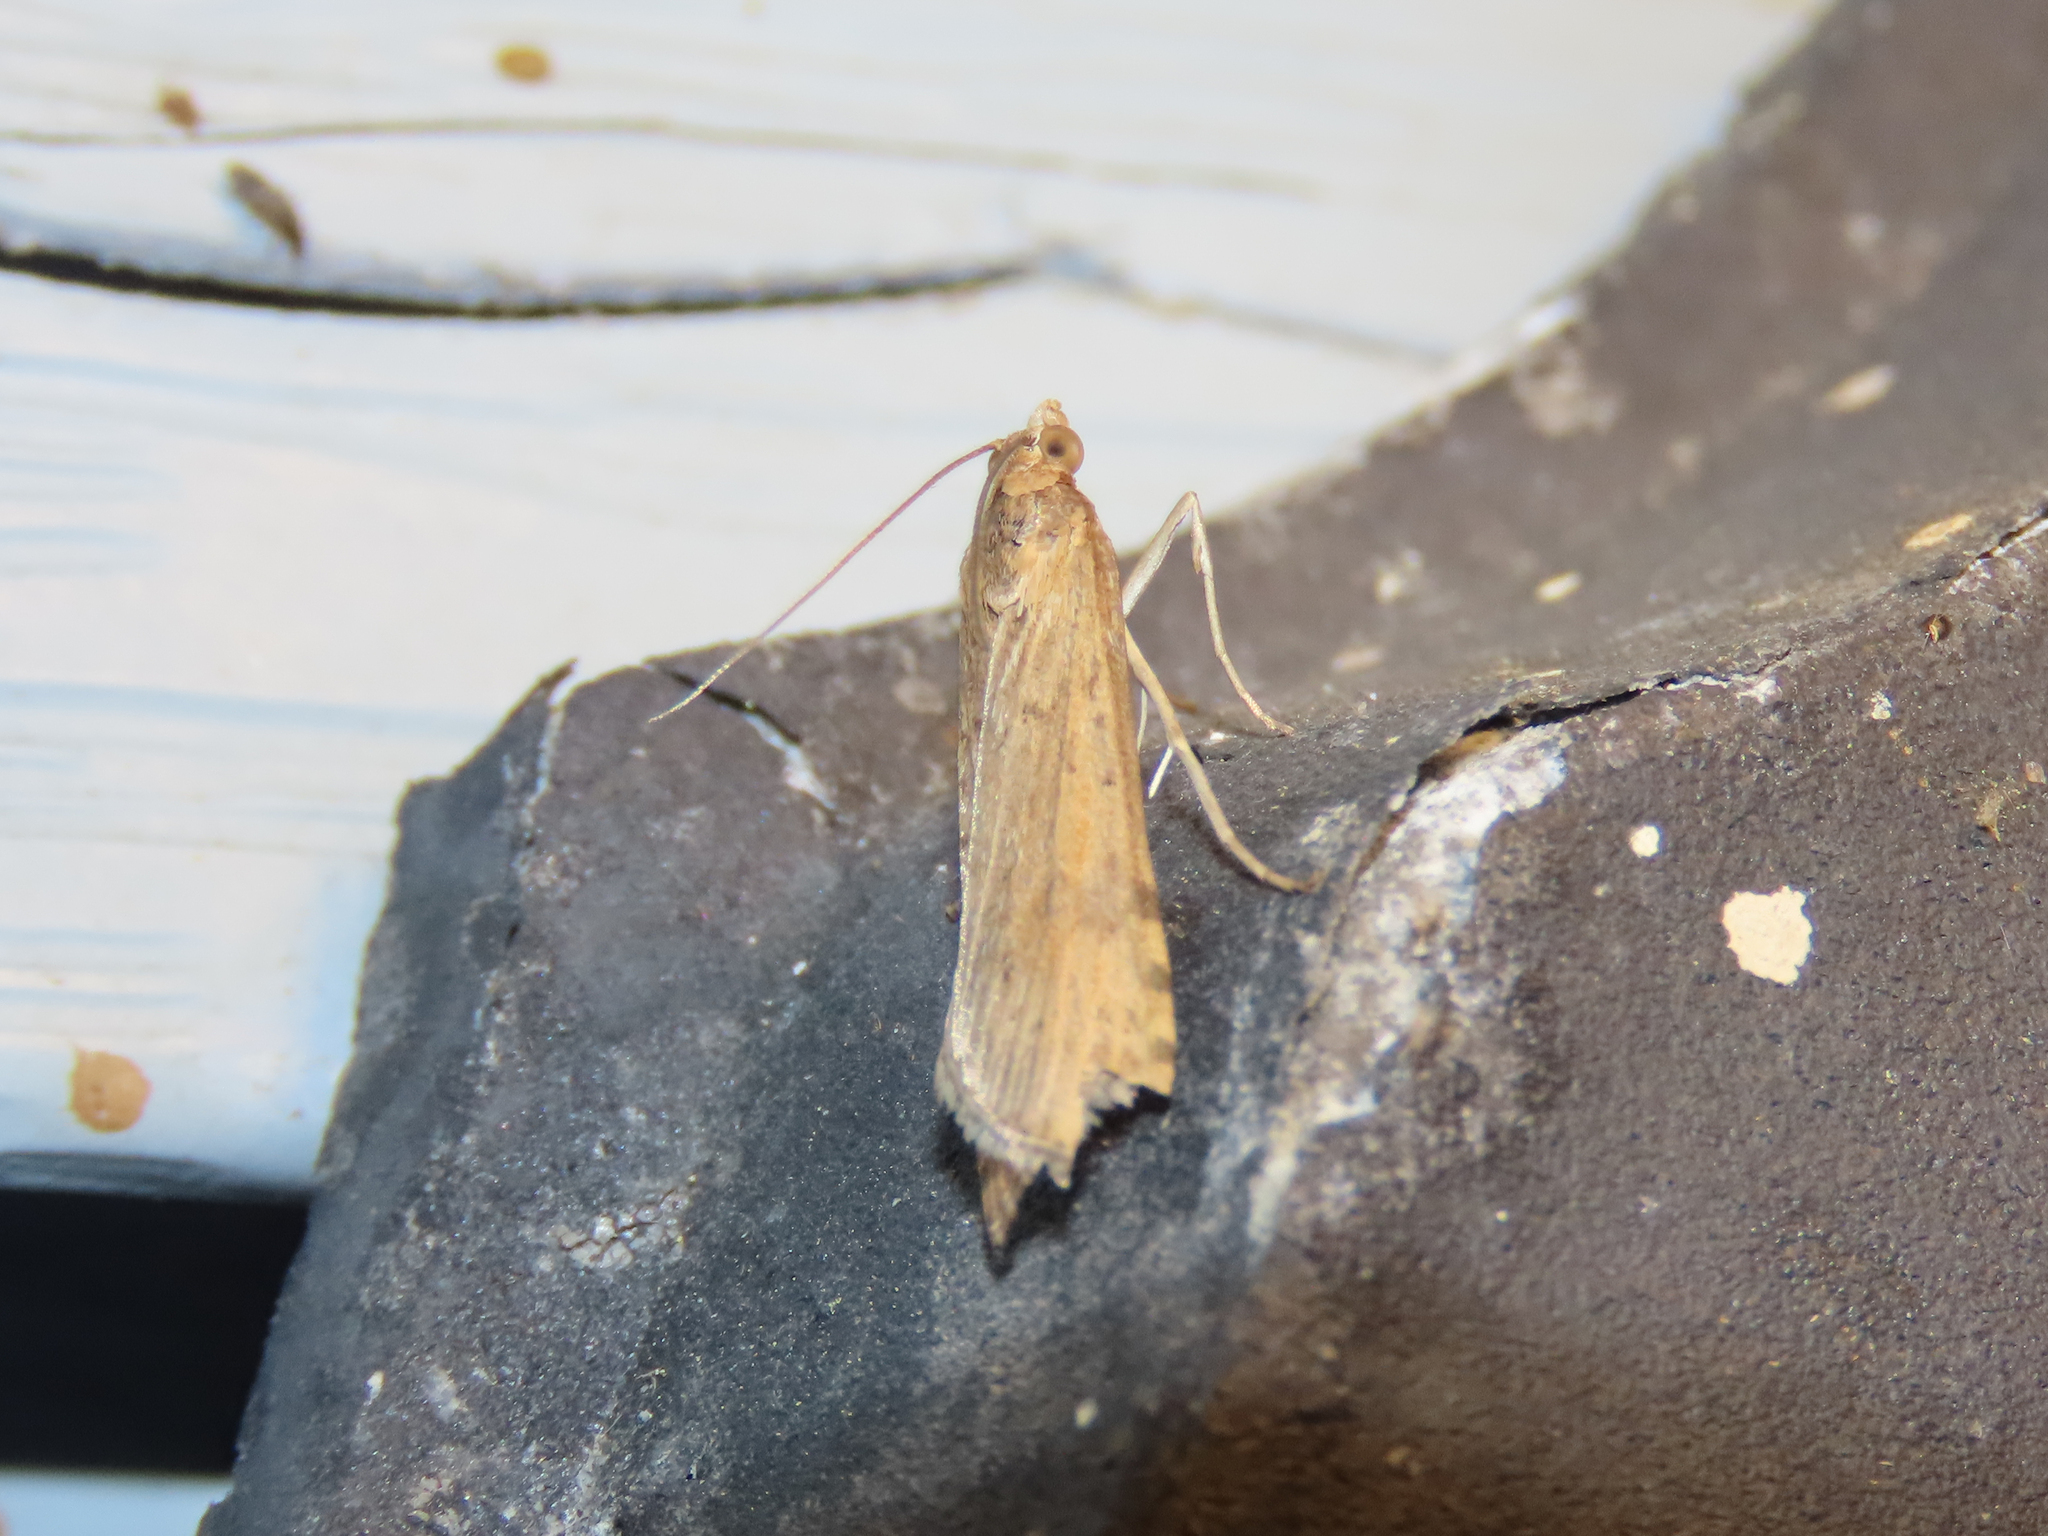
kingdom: Animalia
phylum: Arthropoda
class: Insecta
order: Lepidoptera
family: Crambidae
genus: Nomophila
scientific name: Nomophila nearctica
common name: American rush veneer
